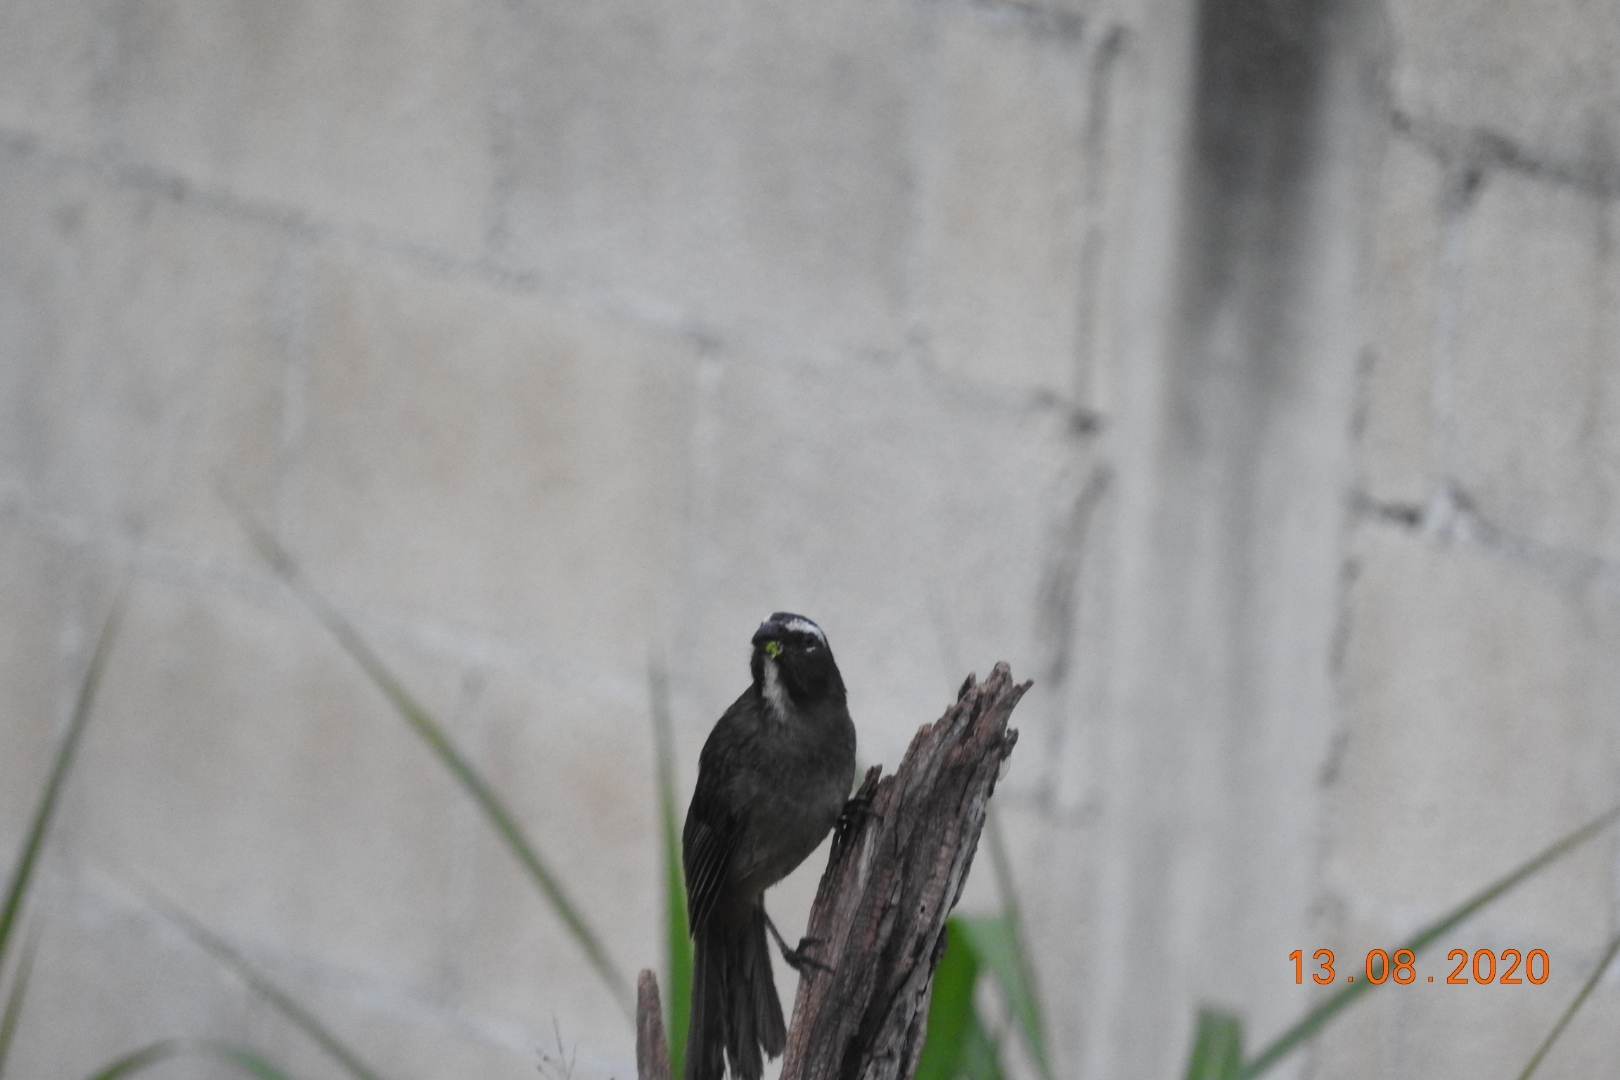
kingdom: Animalia
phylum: Chordata
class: Aves
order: Passeriformes
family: Thraupidae
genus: Saltator
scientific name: Saltator grandis
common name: Cinnamon-bellied saltator
